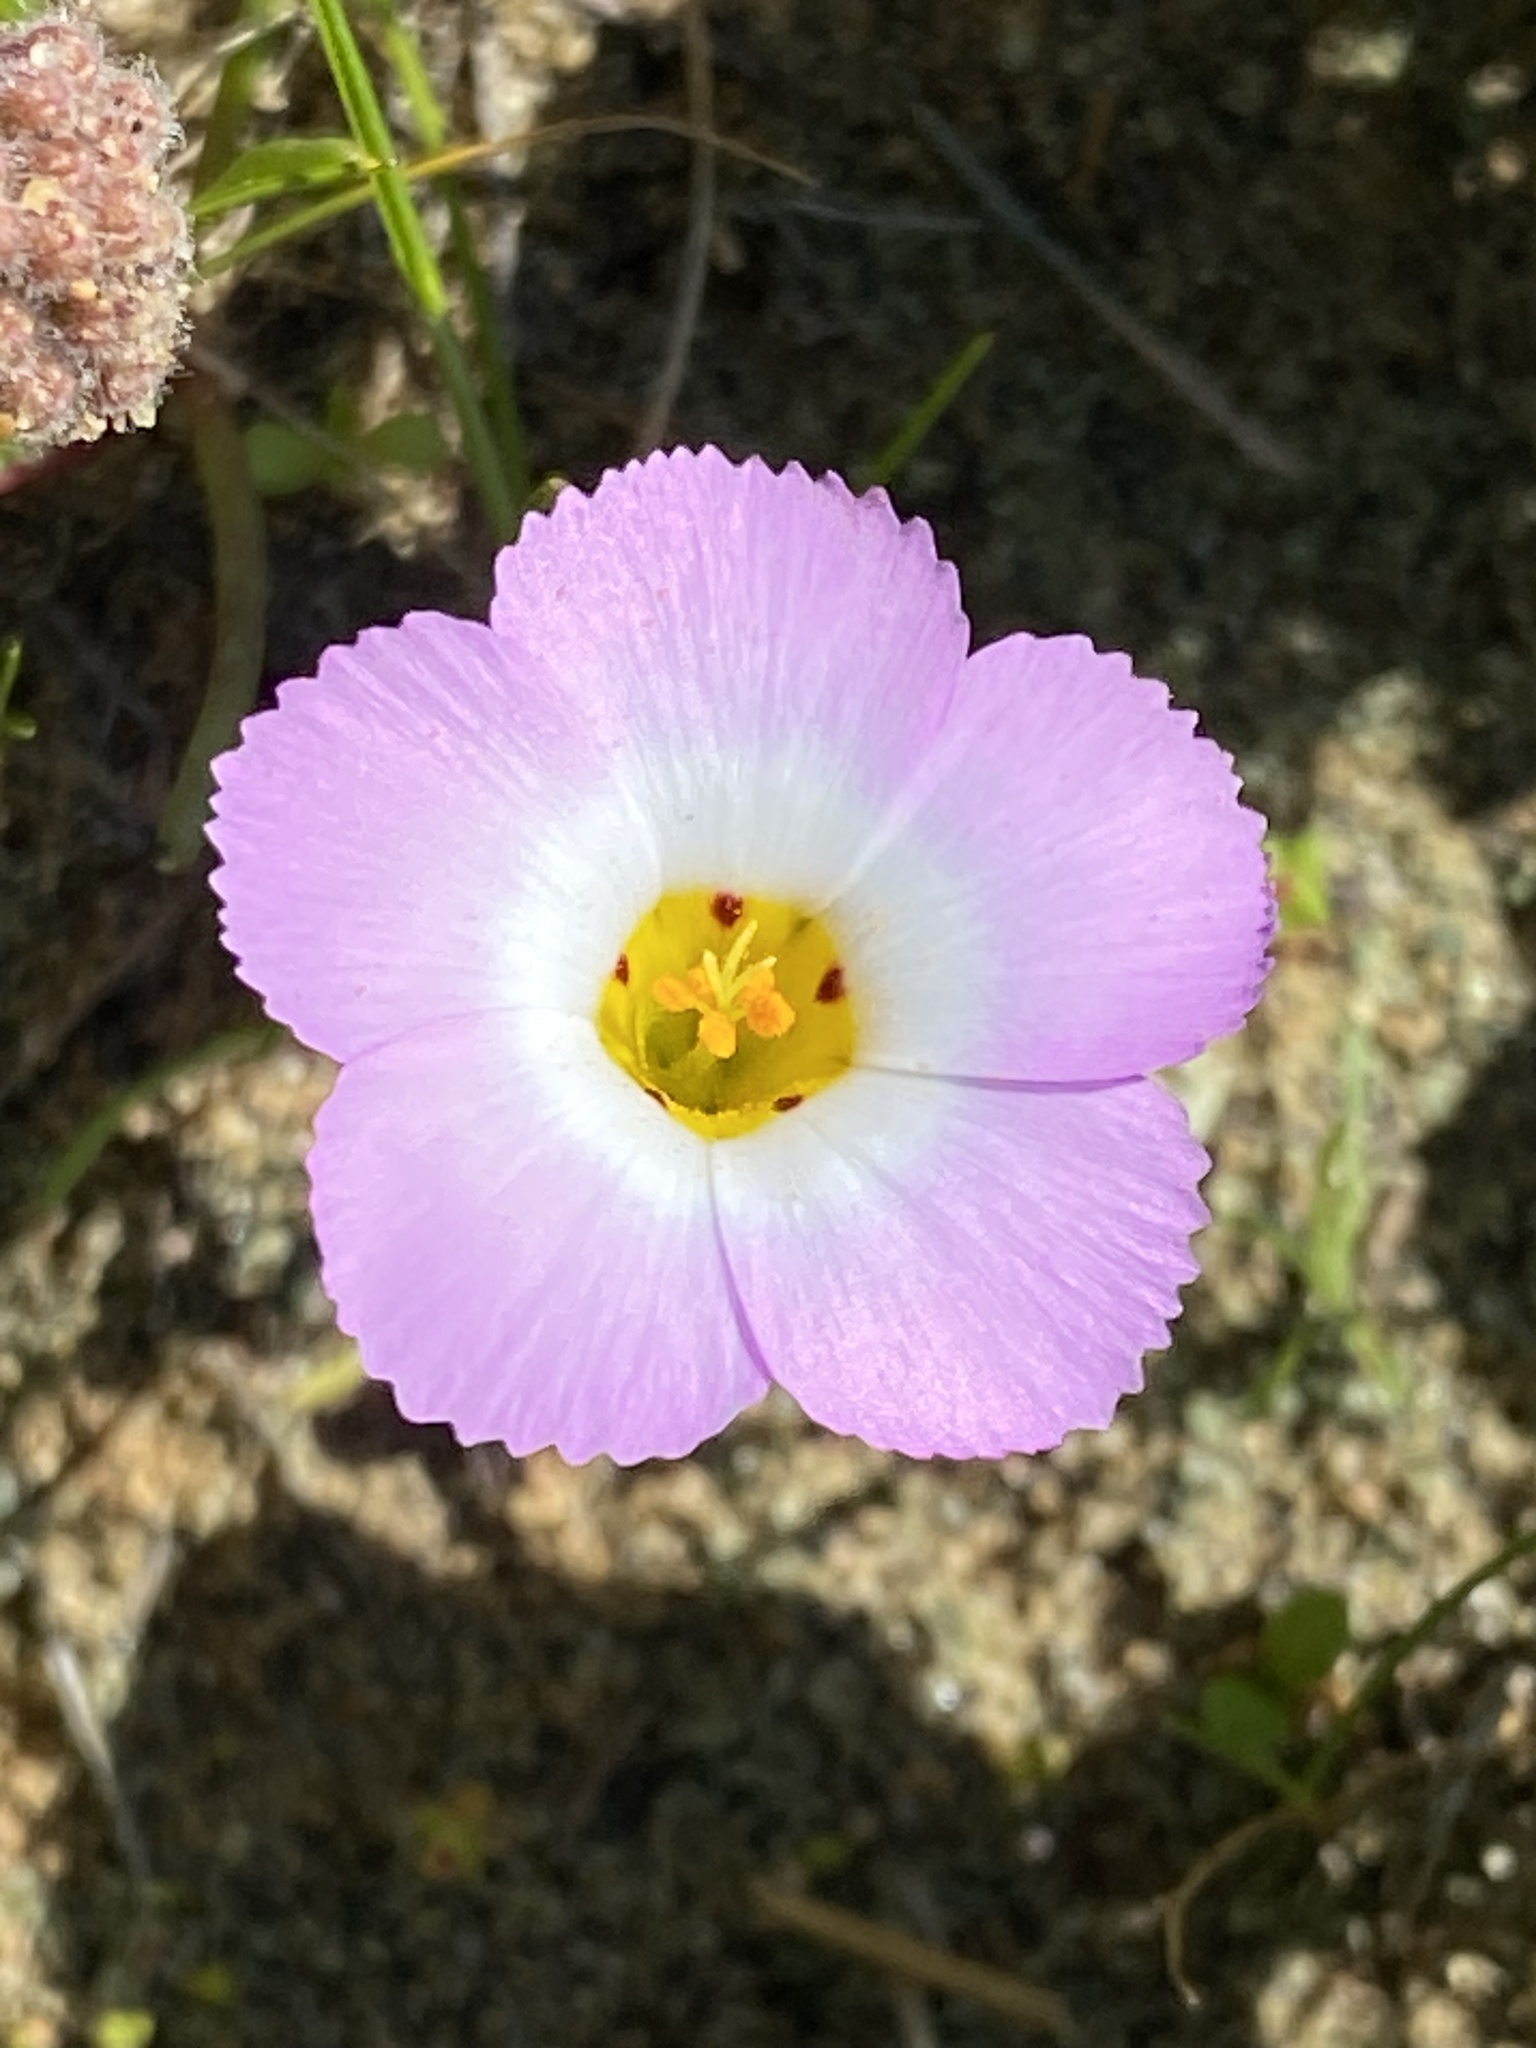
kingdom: Plantae
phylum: Tracheophyta
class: Magnoliopsida
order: Ericales
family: Polemoniaceae
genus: Linanthus
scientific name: Linanthus dianthiflorus
